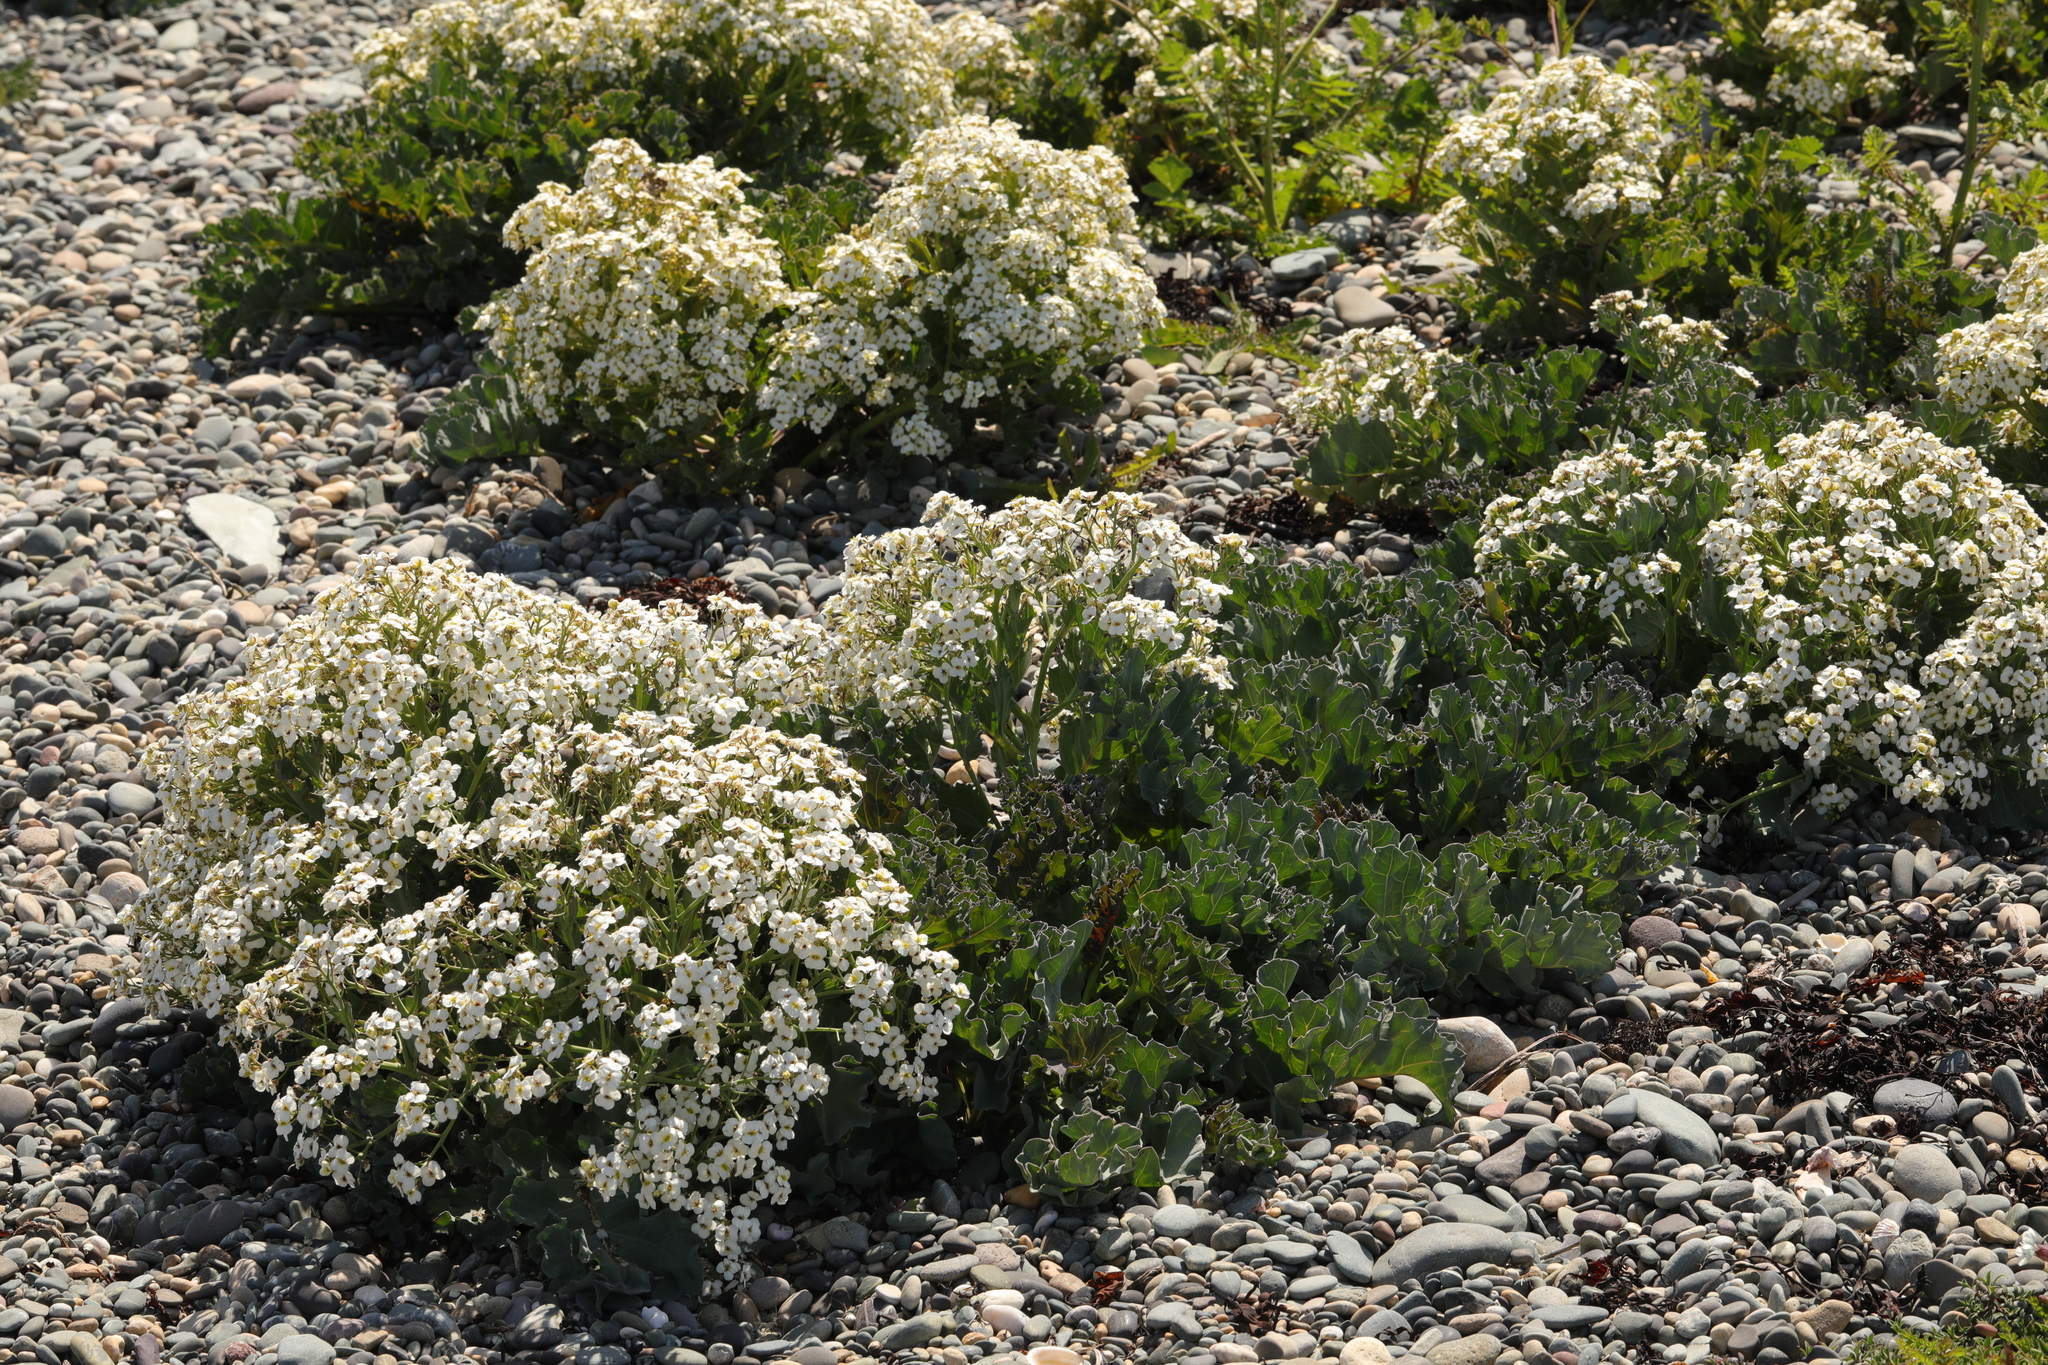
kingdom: Plantae
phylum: Tracheophyta
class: Magnoliopsida
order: Brassicales
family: Brassicaceae
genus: Crambe
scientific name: Crambe maritima
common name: Sea-kale
